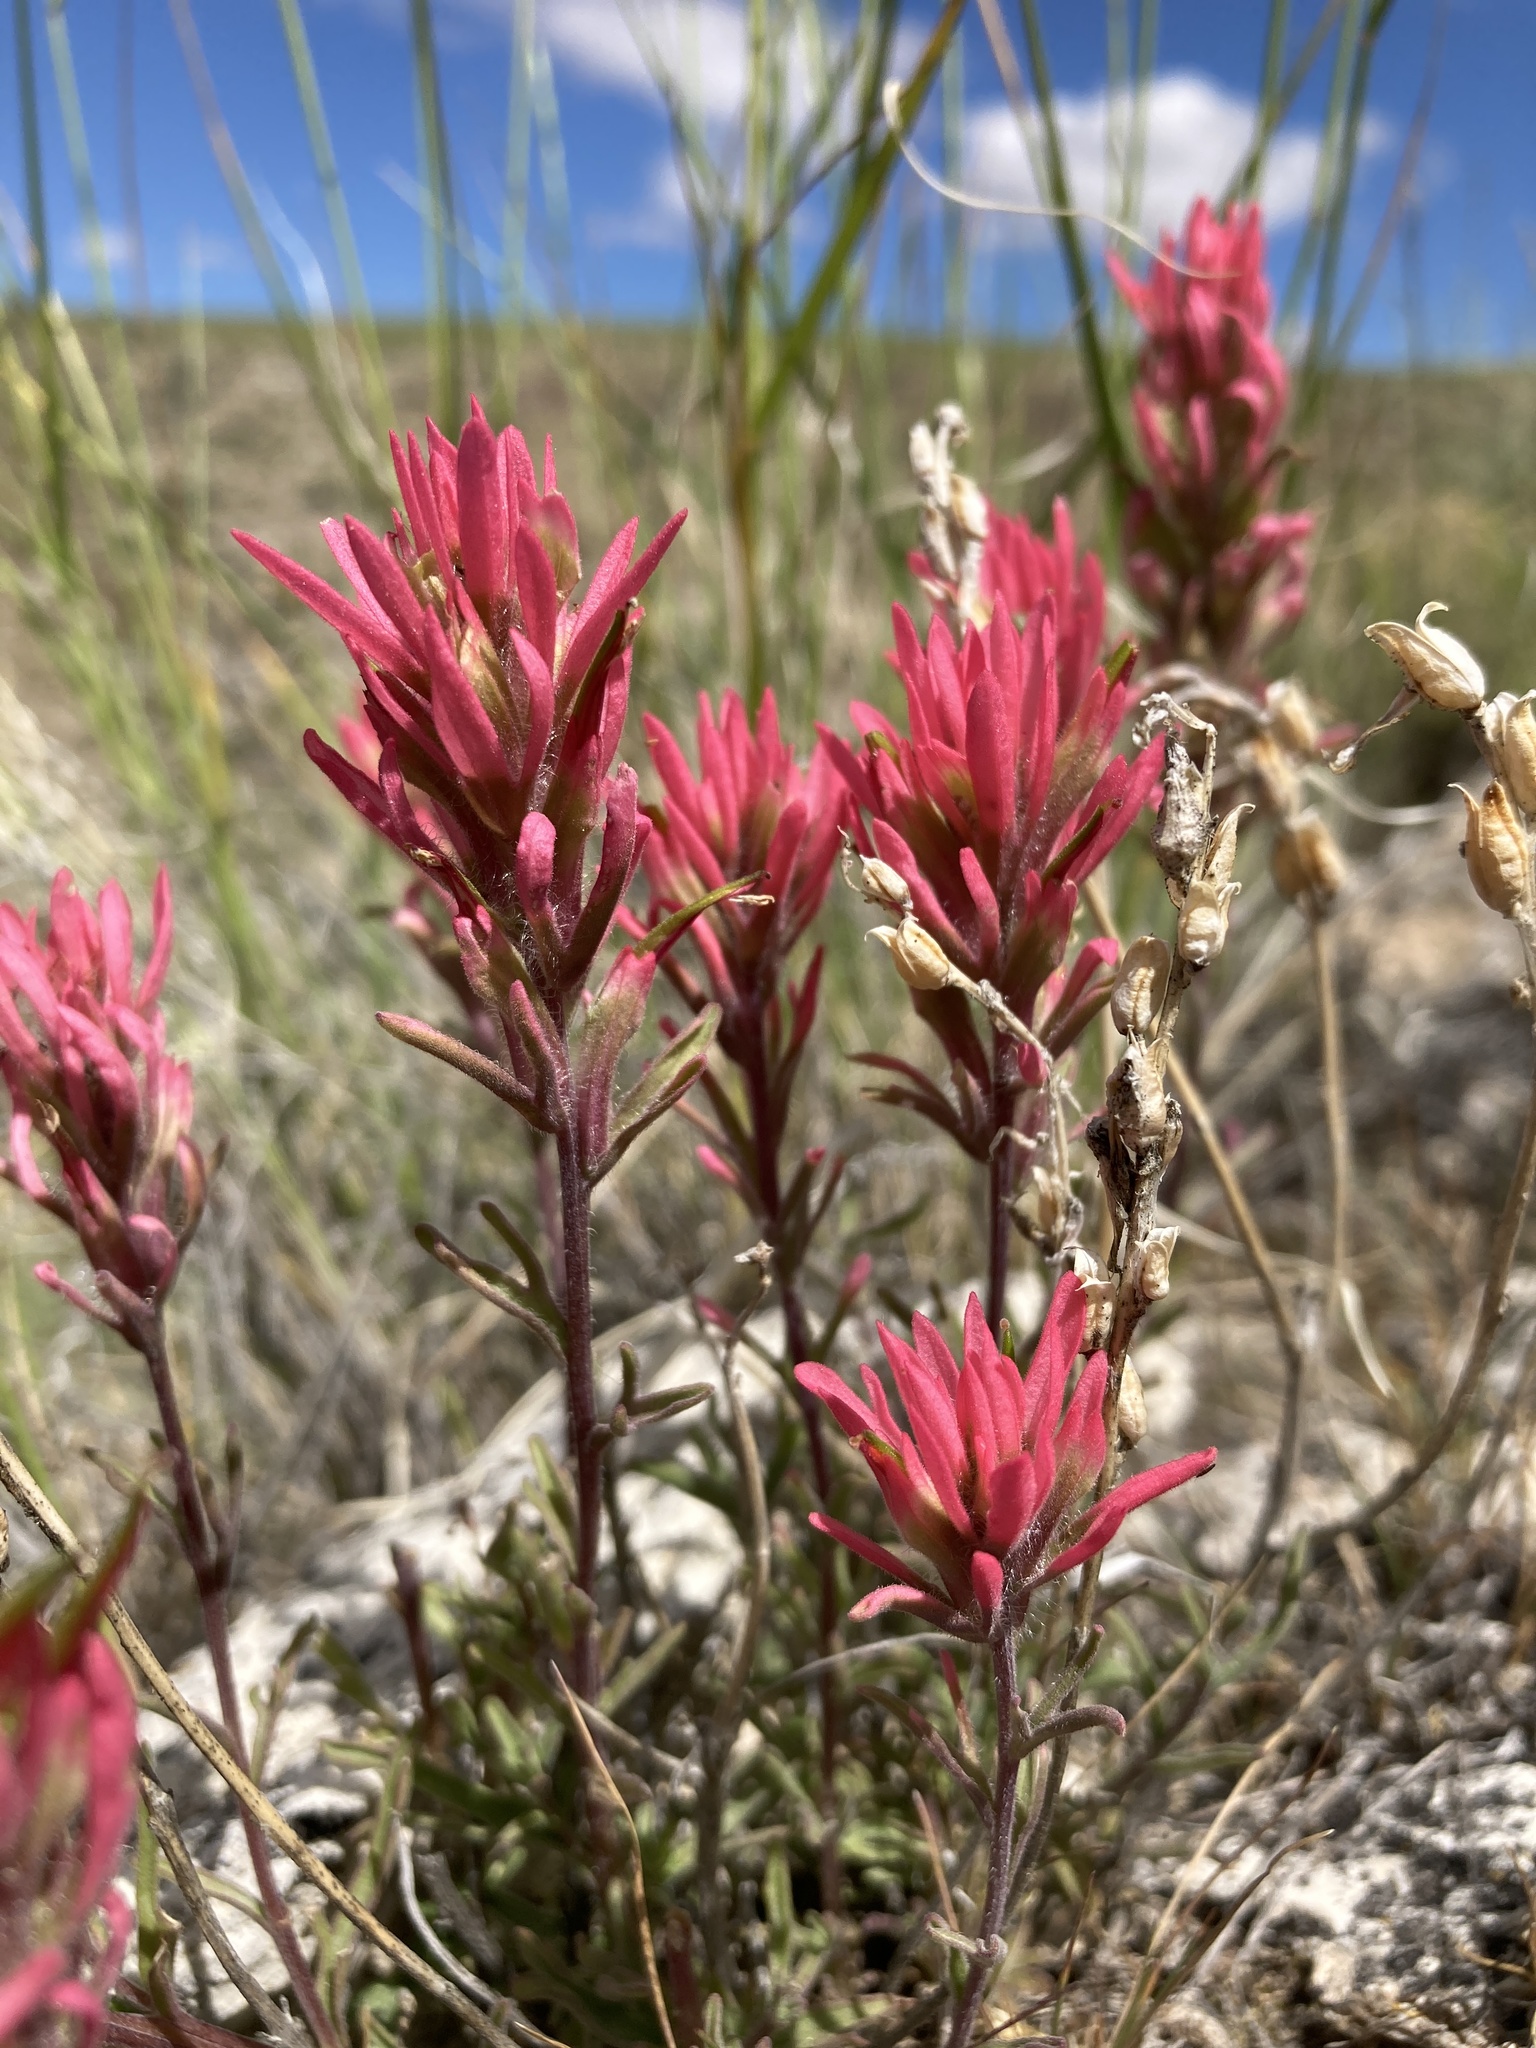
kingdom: Plantae
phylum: Tracheophyta
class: Magnoliopsida
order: Lamiales
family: Orobanchaceae
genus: Castilleja
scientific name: Castilleja angustifolia
